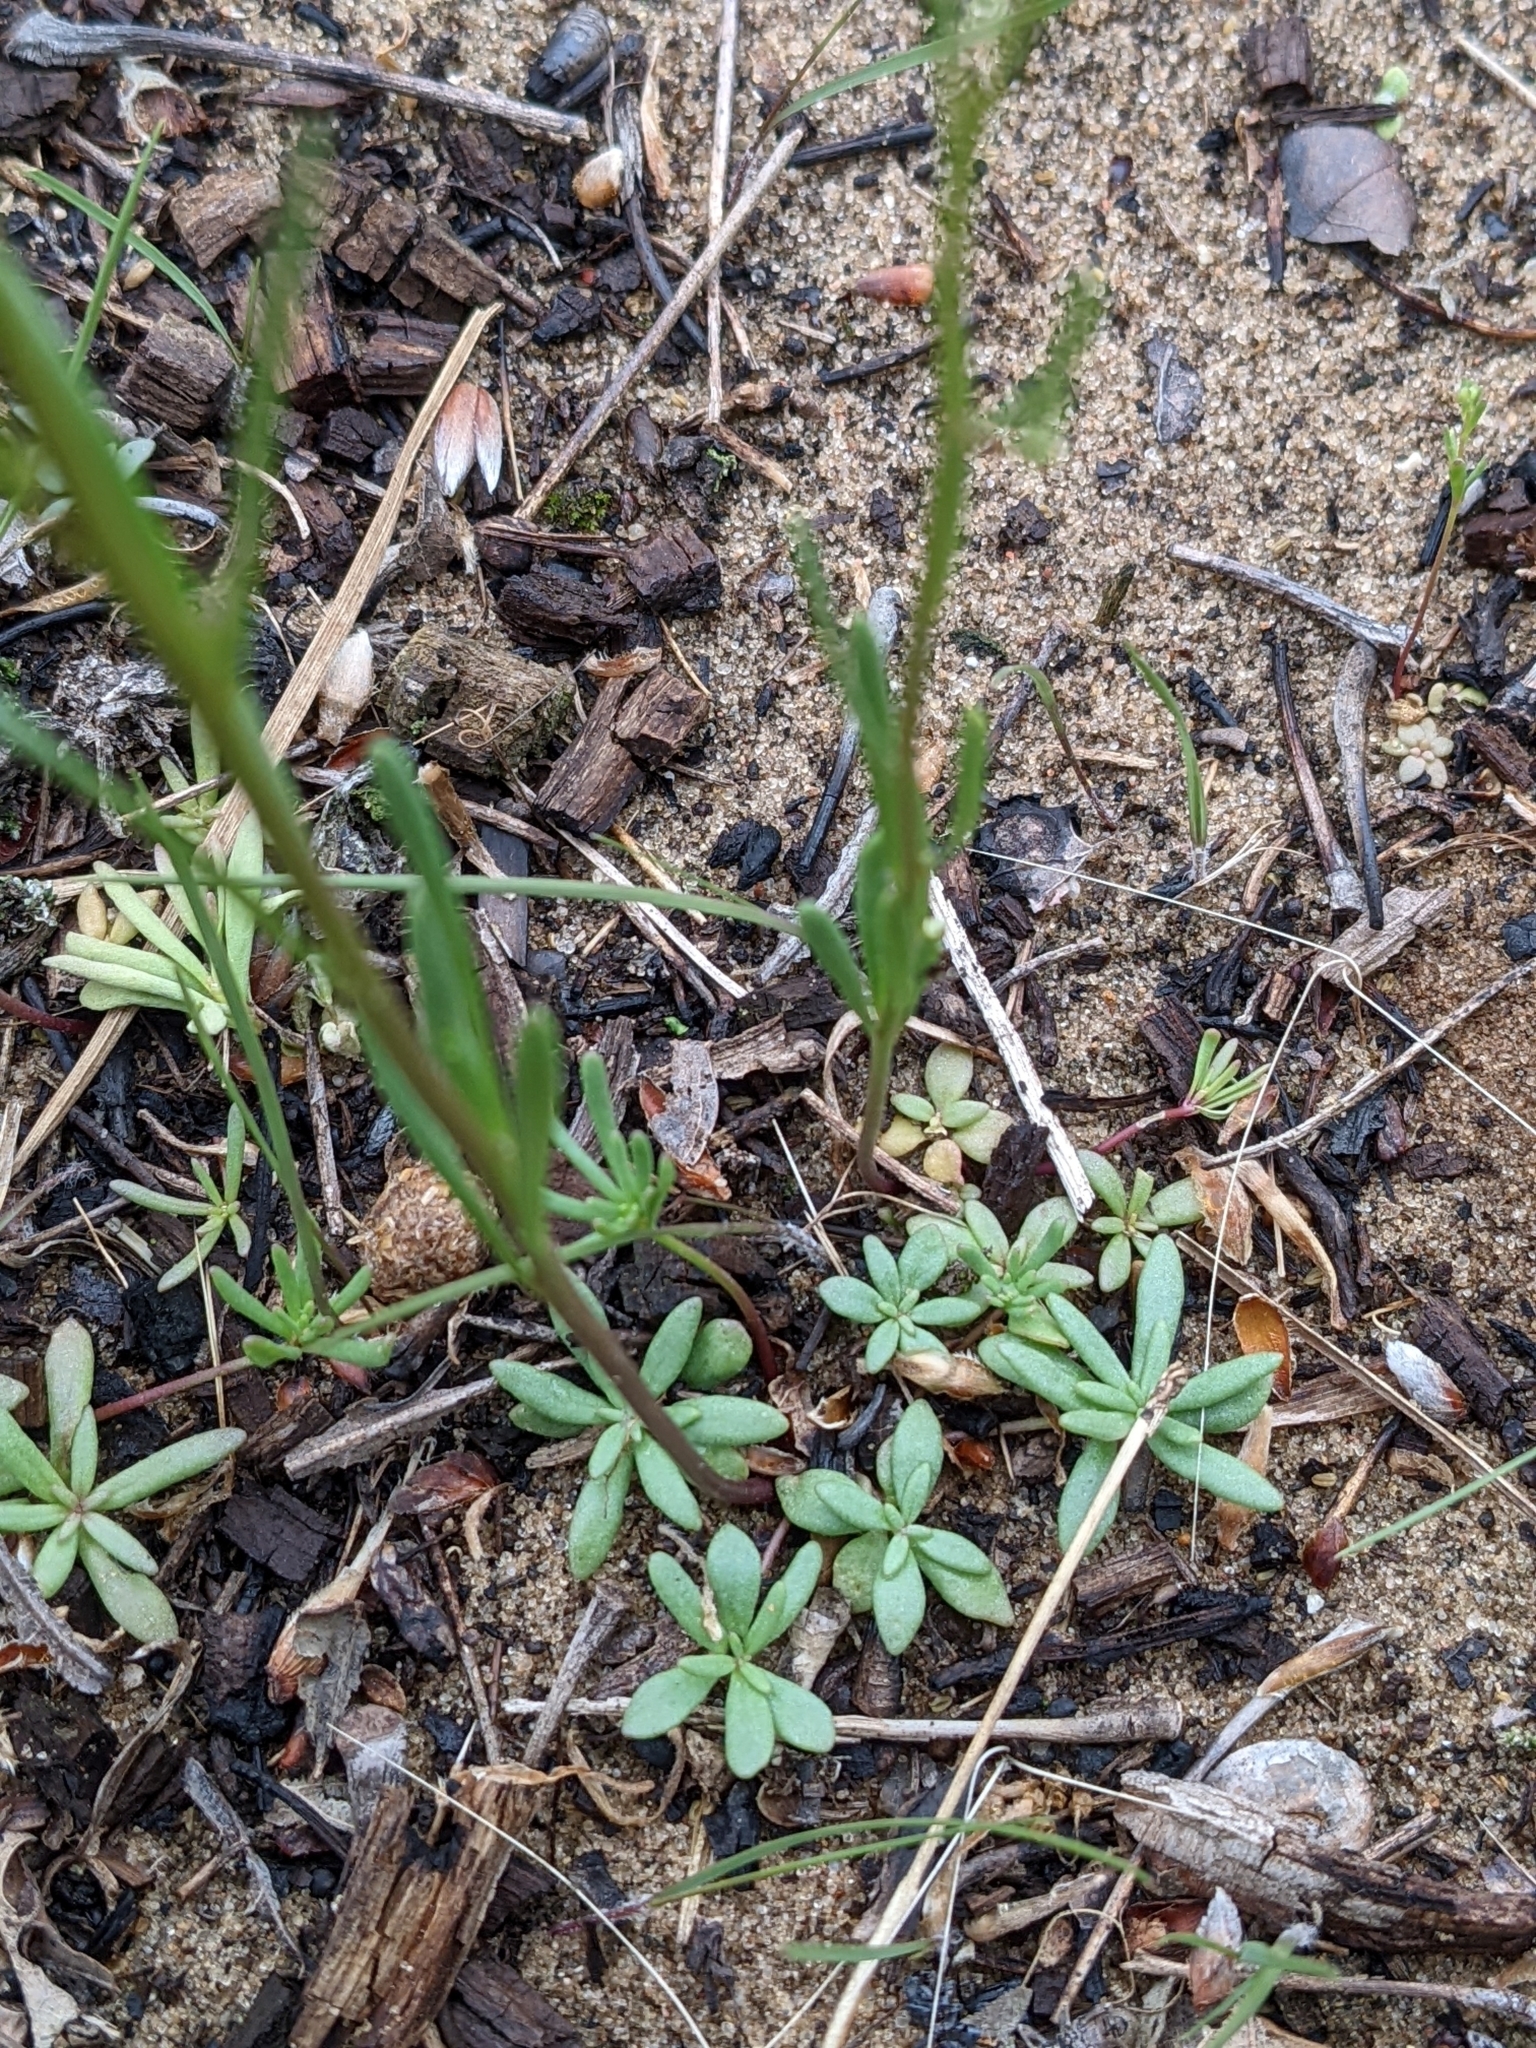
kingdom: Plantae
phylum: Tracheophyta
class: Magnoliopsida
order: Lamiales
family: Plantaginaceae
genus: Nuttallanthus
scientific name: Nuttallanthus canadensis
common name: Blue toadflax
